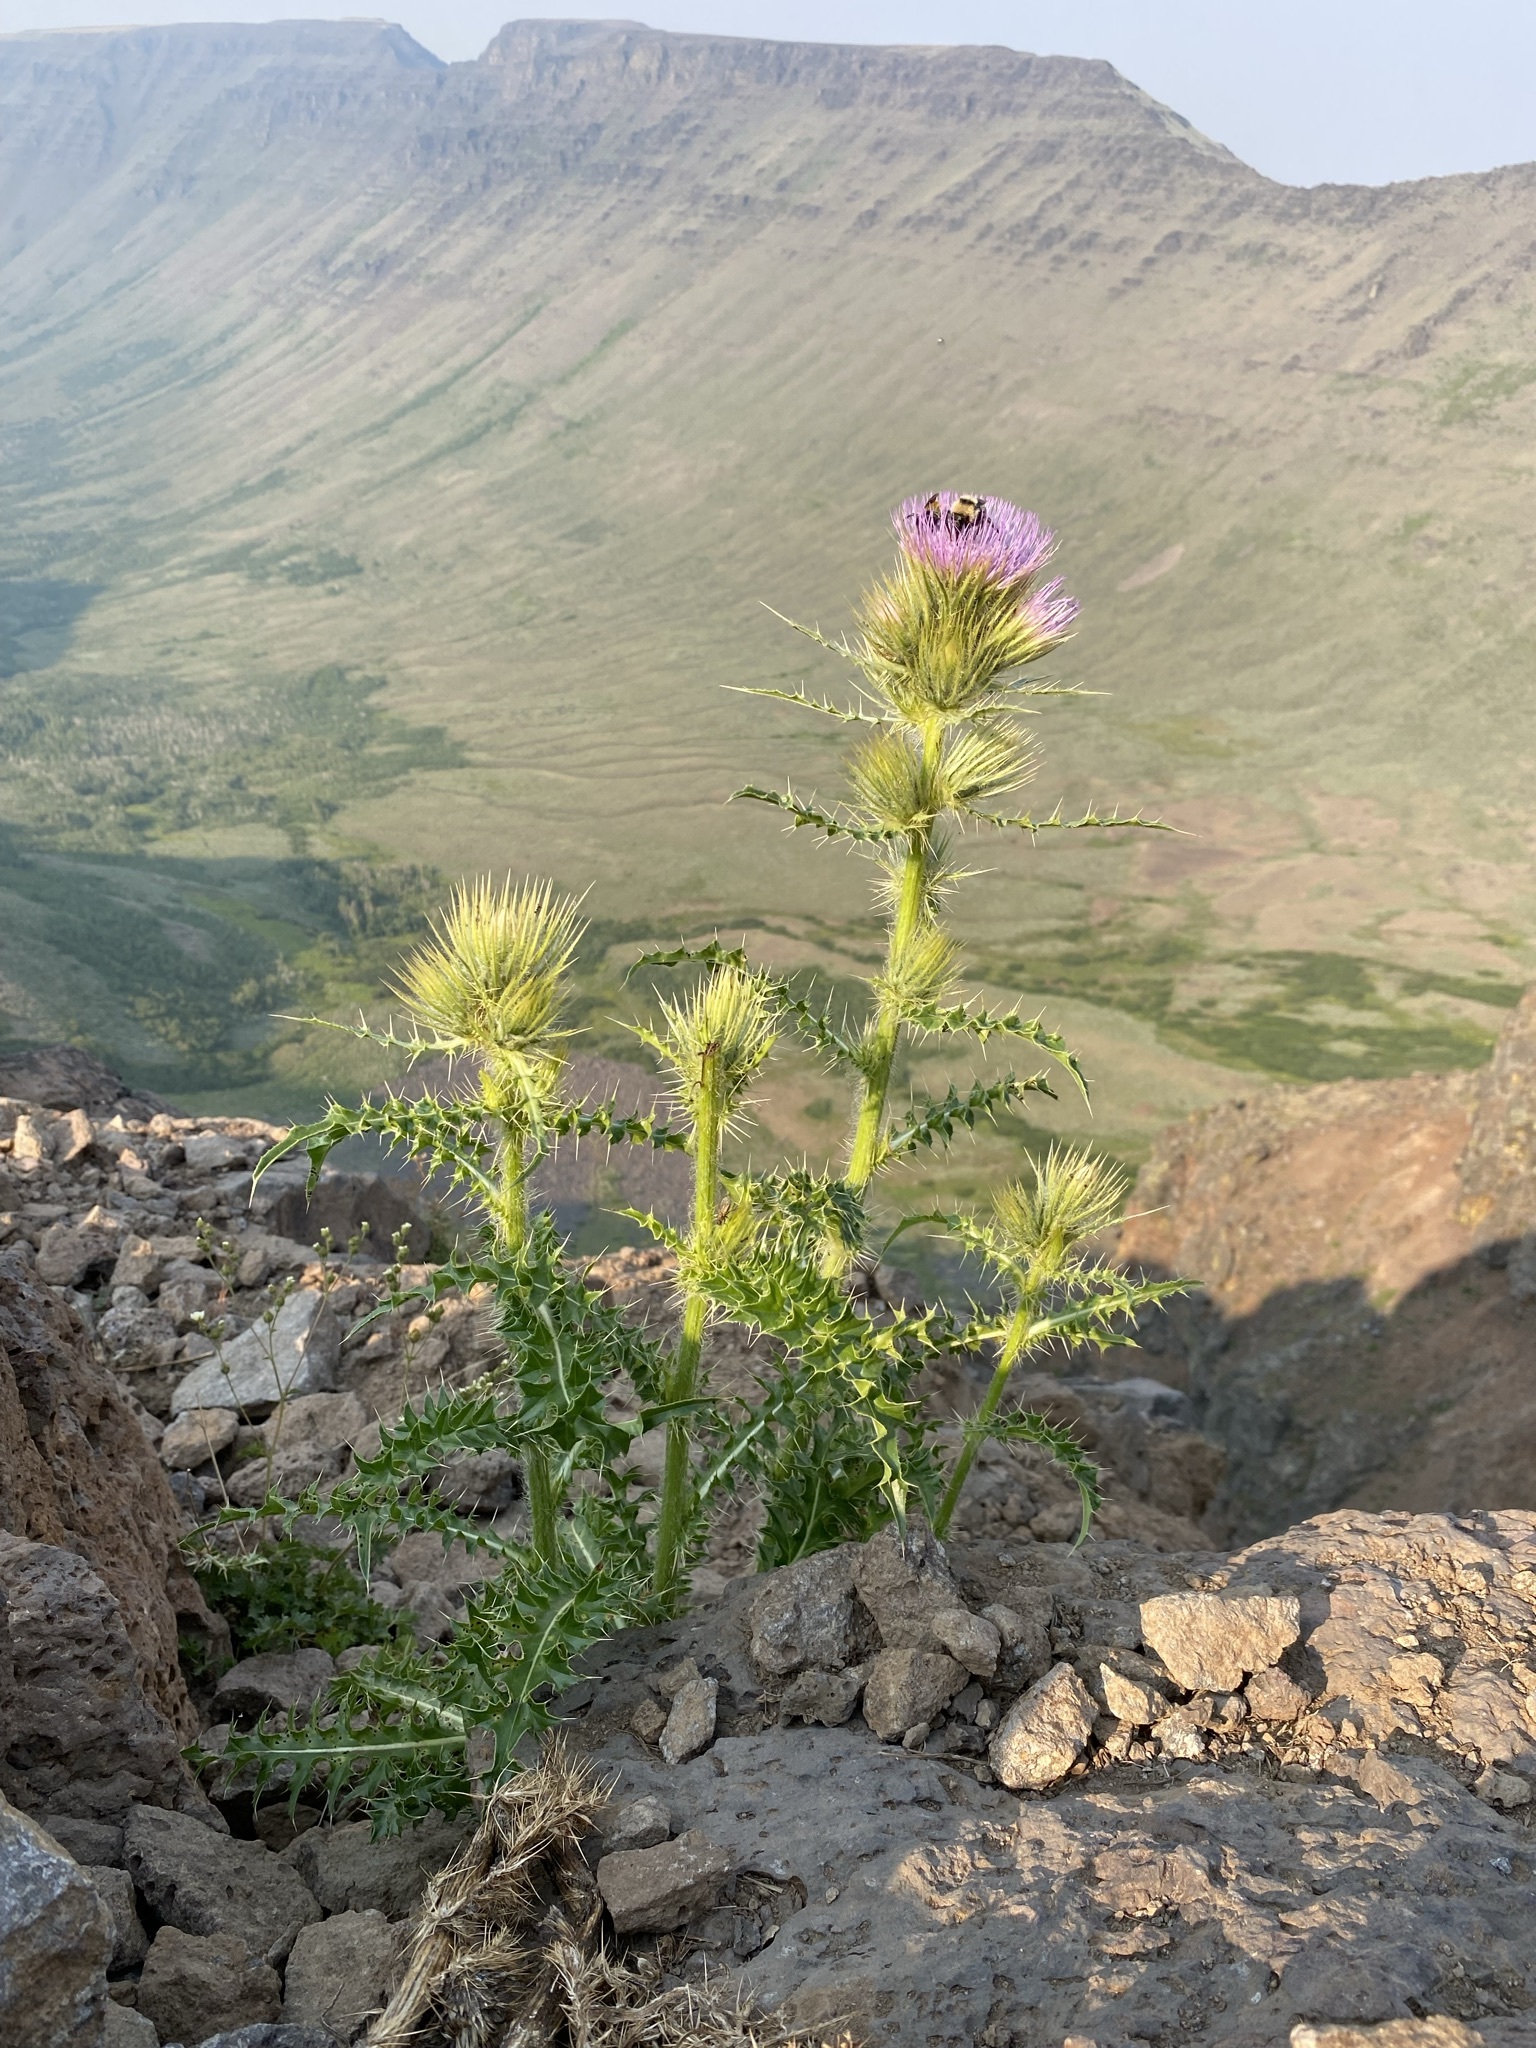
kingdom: Plantae
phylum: Tracheophyta
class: Magnoliopsida
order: Asterales
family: Asteraceae
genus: Cirsium
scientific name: Cirsium peckii
